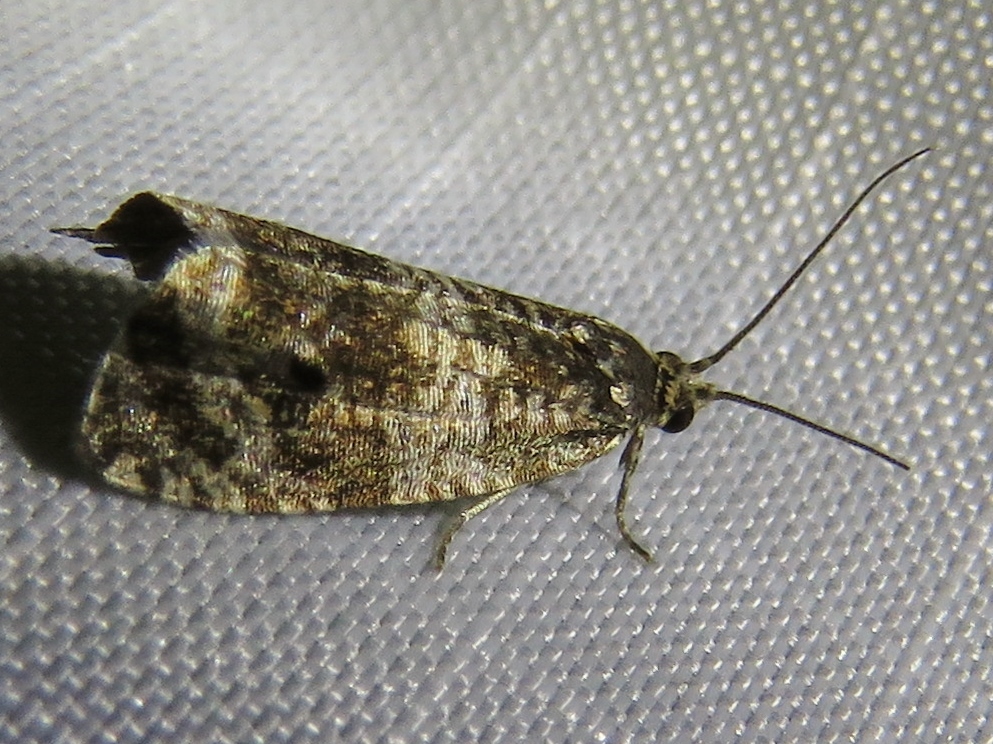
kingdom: Animalia
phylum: Arthropoda
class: Insecta
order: Lepidoptera
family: Tortricidae
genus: Syricoris
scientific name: Syricoris lacunana
